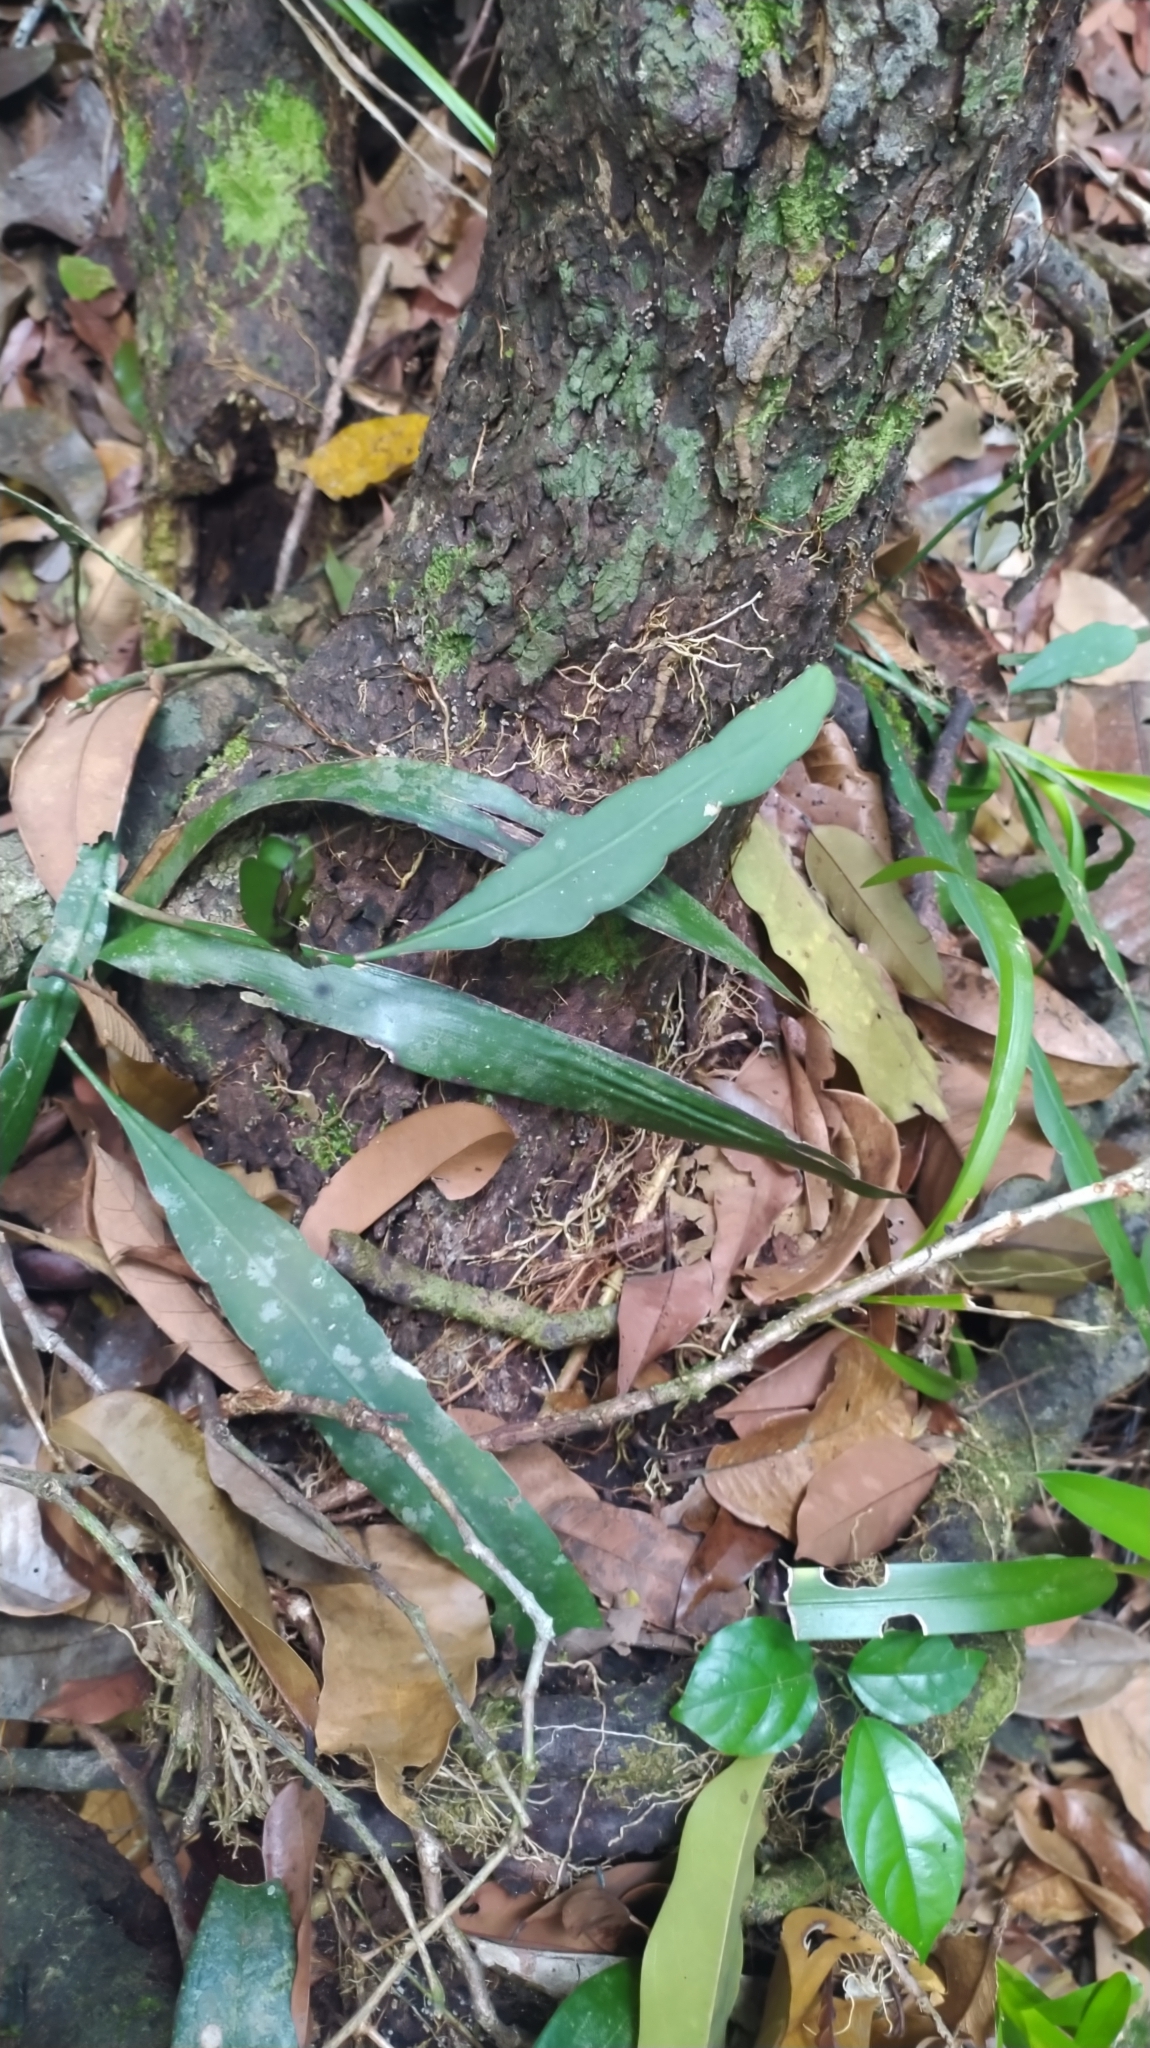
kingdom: Plantae
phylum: Tracheophyta
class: Magnoliopsida
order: Caryophyllales
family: Cactaceae
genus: Epiphyllum
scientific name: Epiphyllum phyllanthus
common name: Climbing cactus
